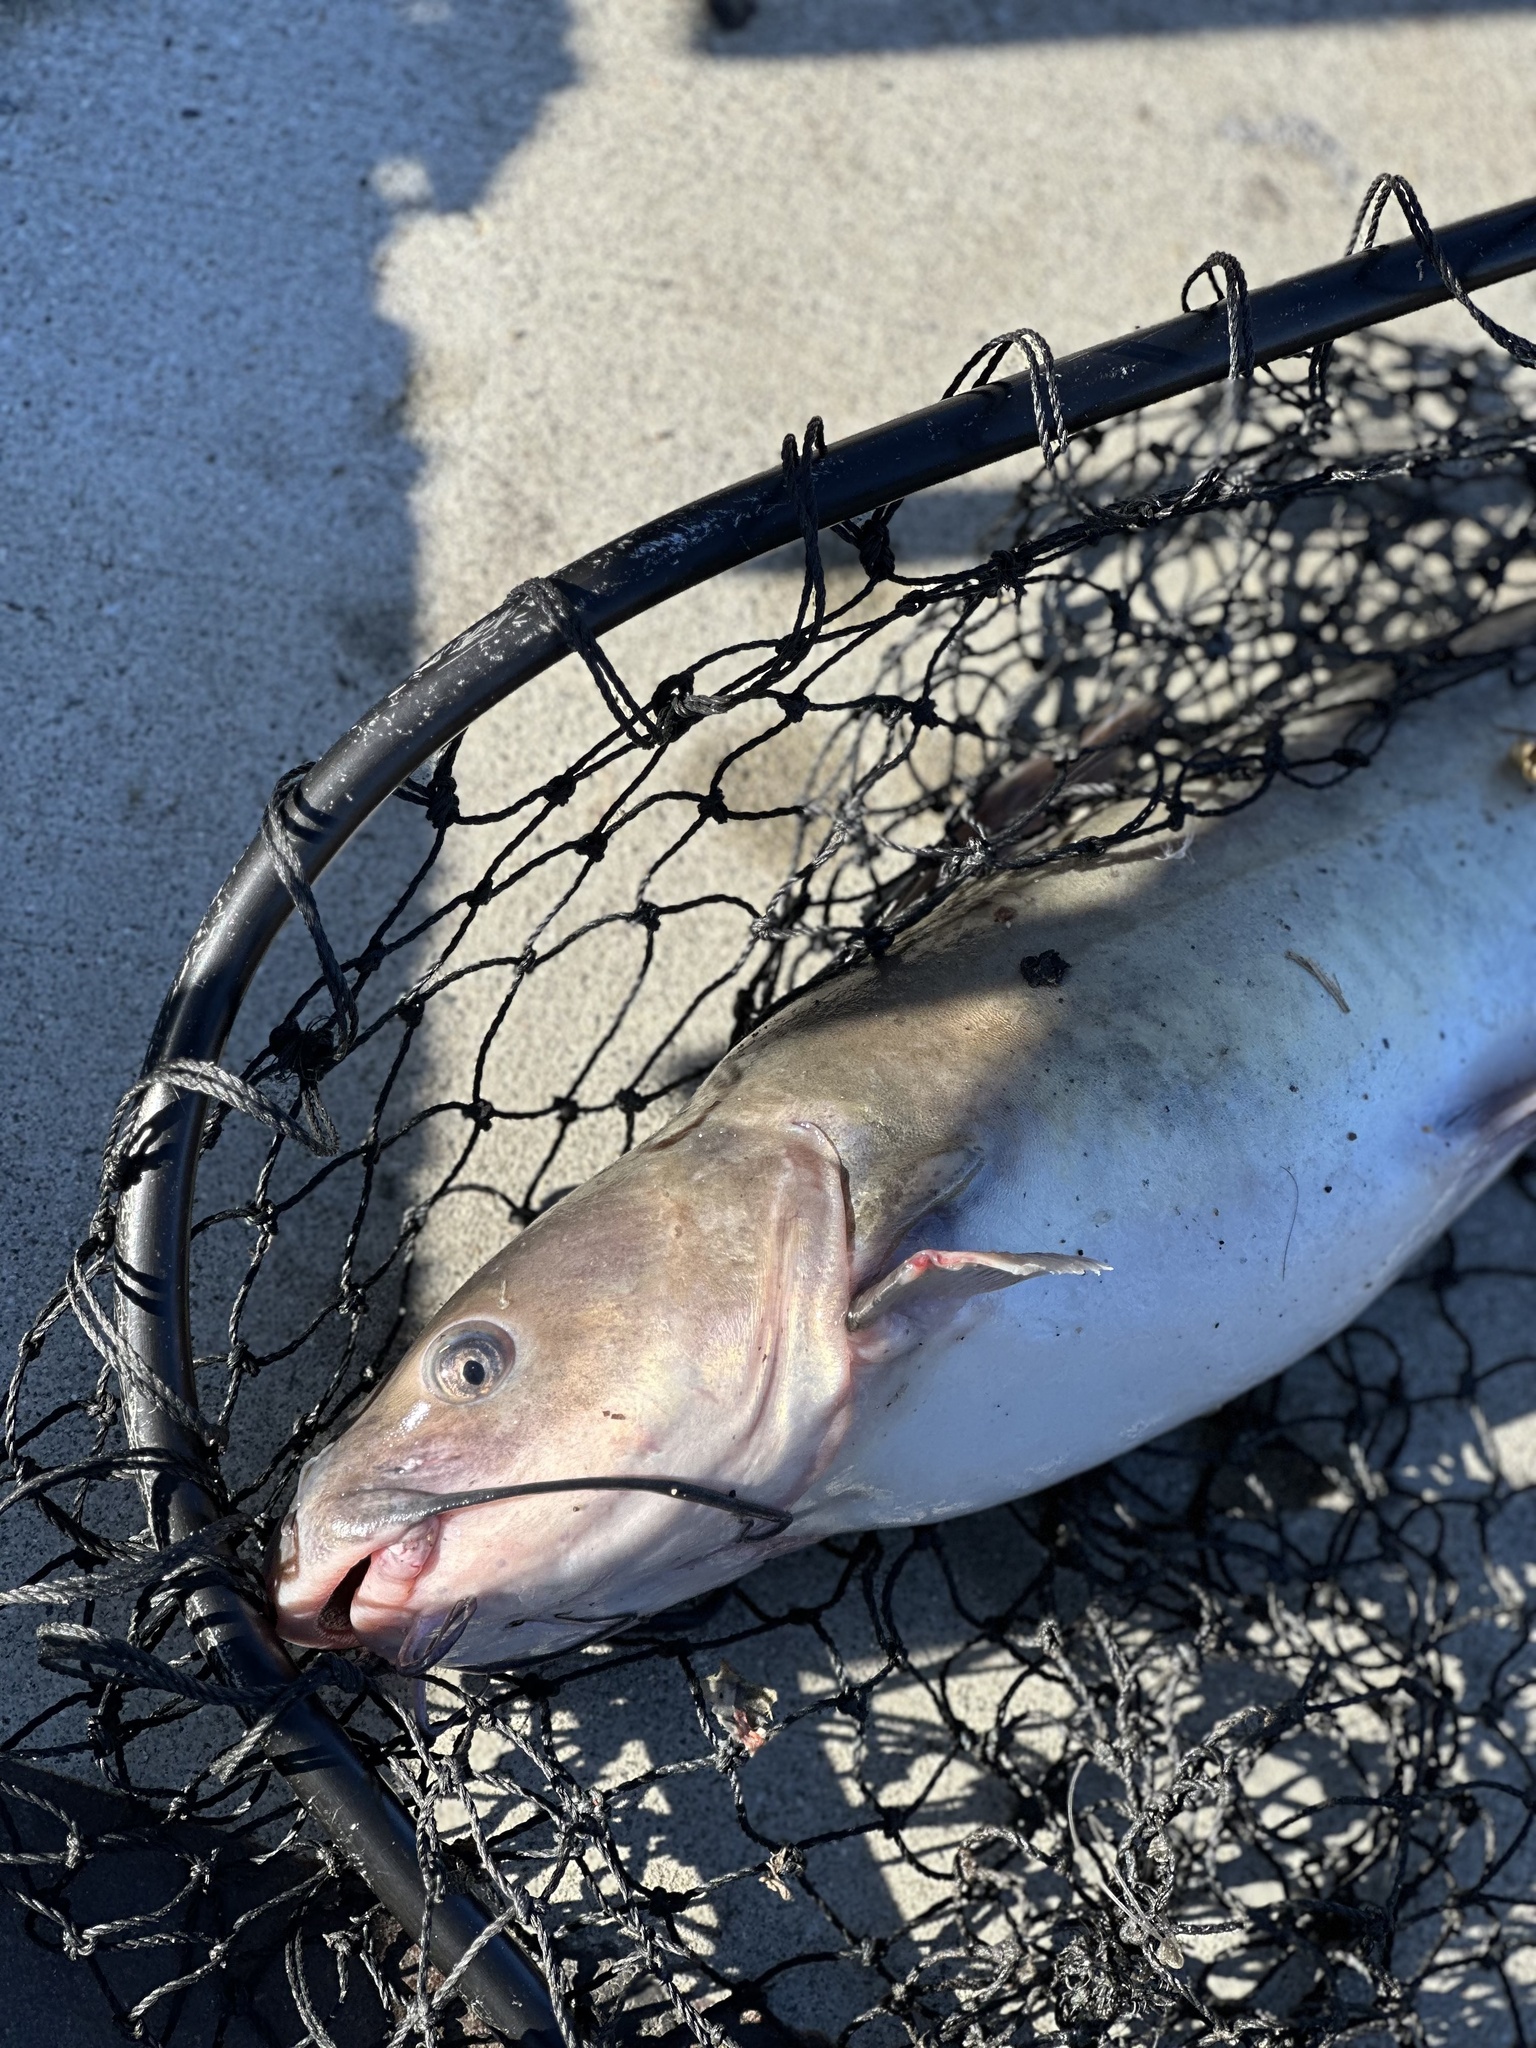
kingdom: Animalia
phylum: Chordata
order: Siluriformes
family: Ictaluridae
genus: Ictalurus
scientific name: Ictalurus punctatus
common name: Channel catfish
